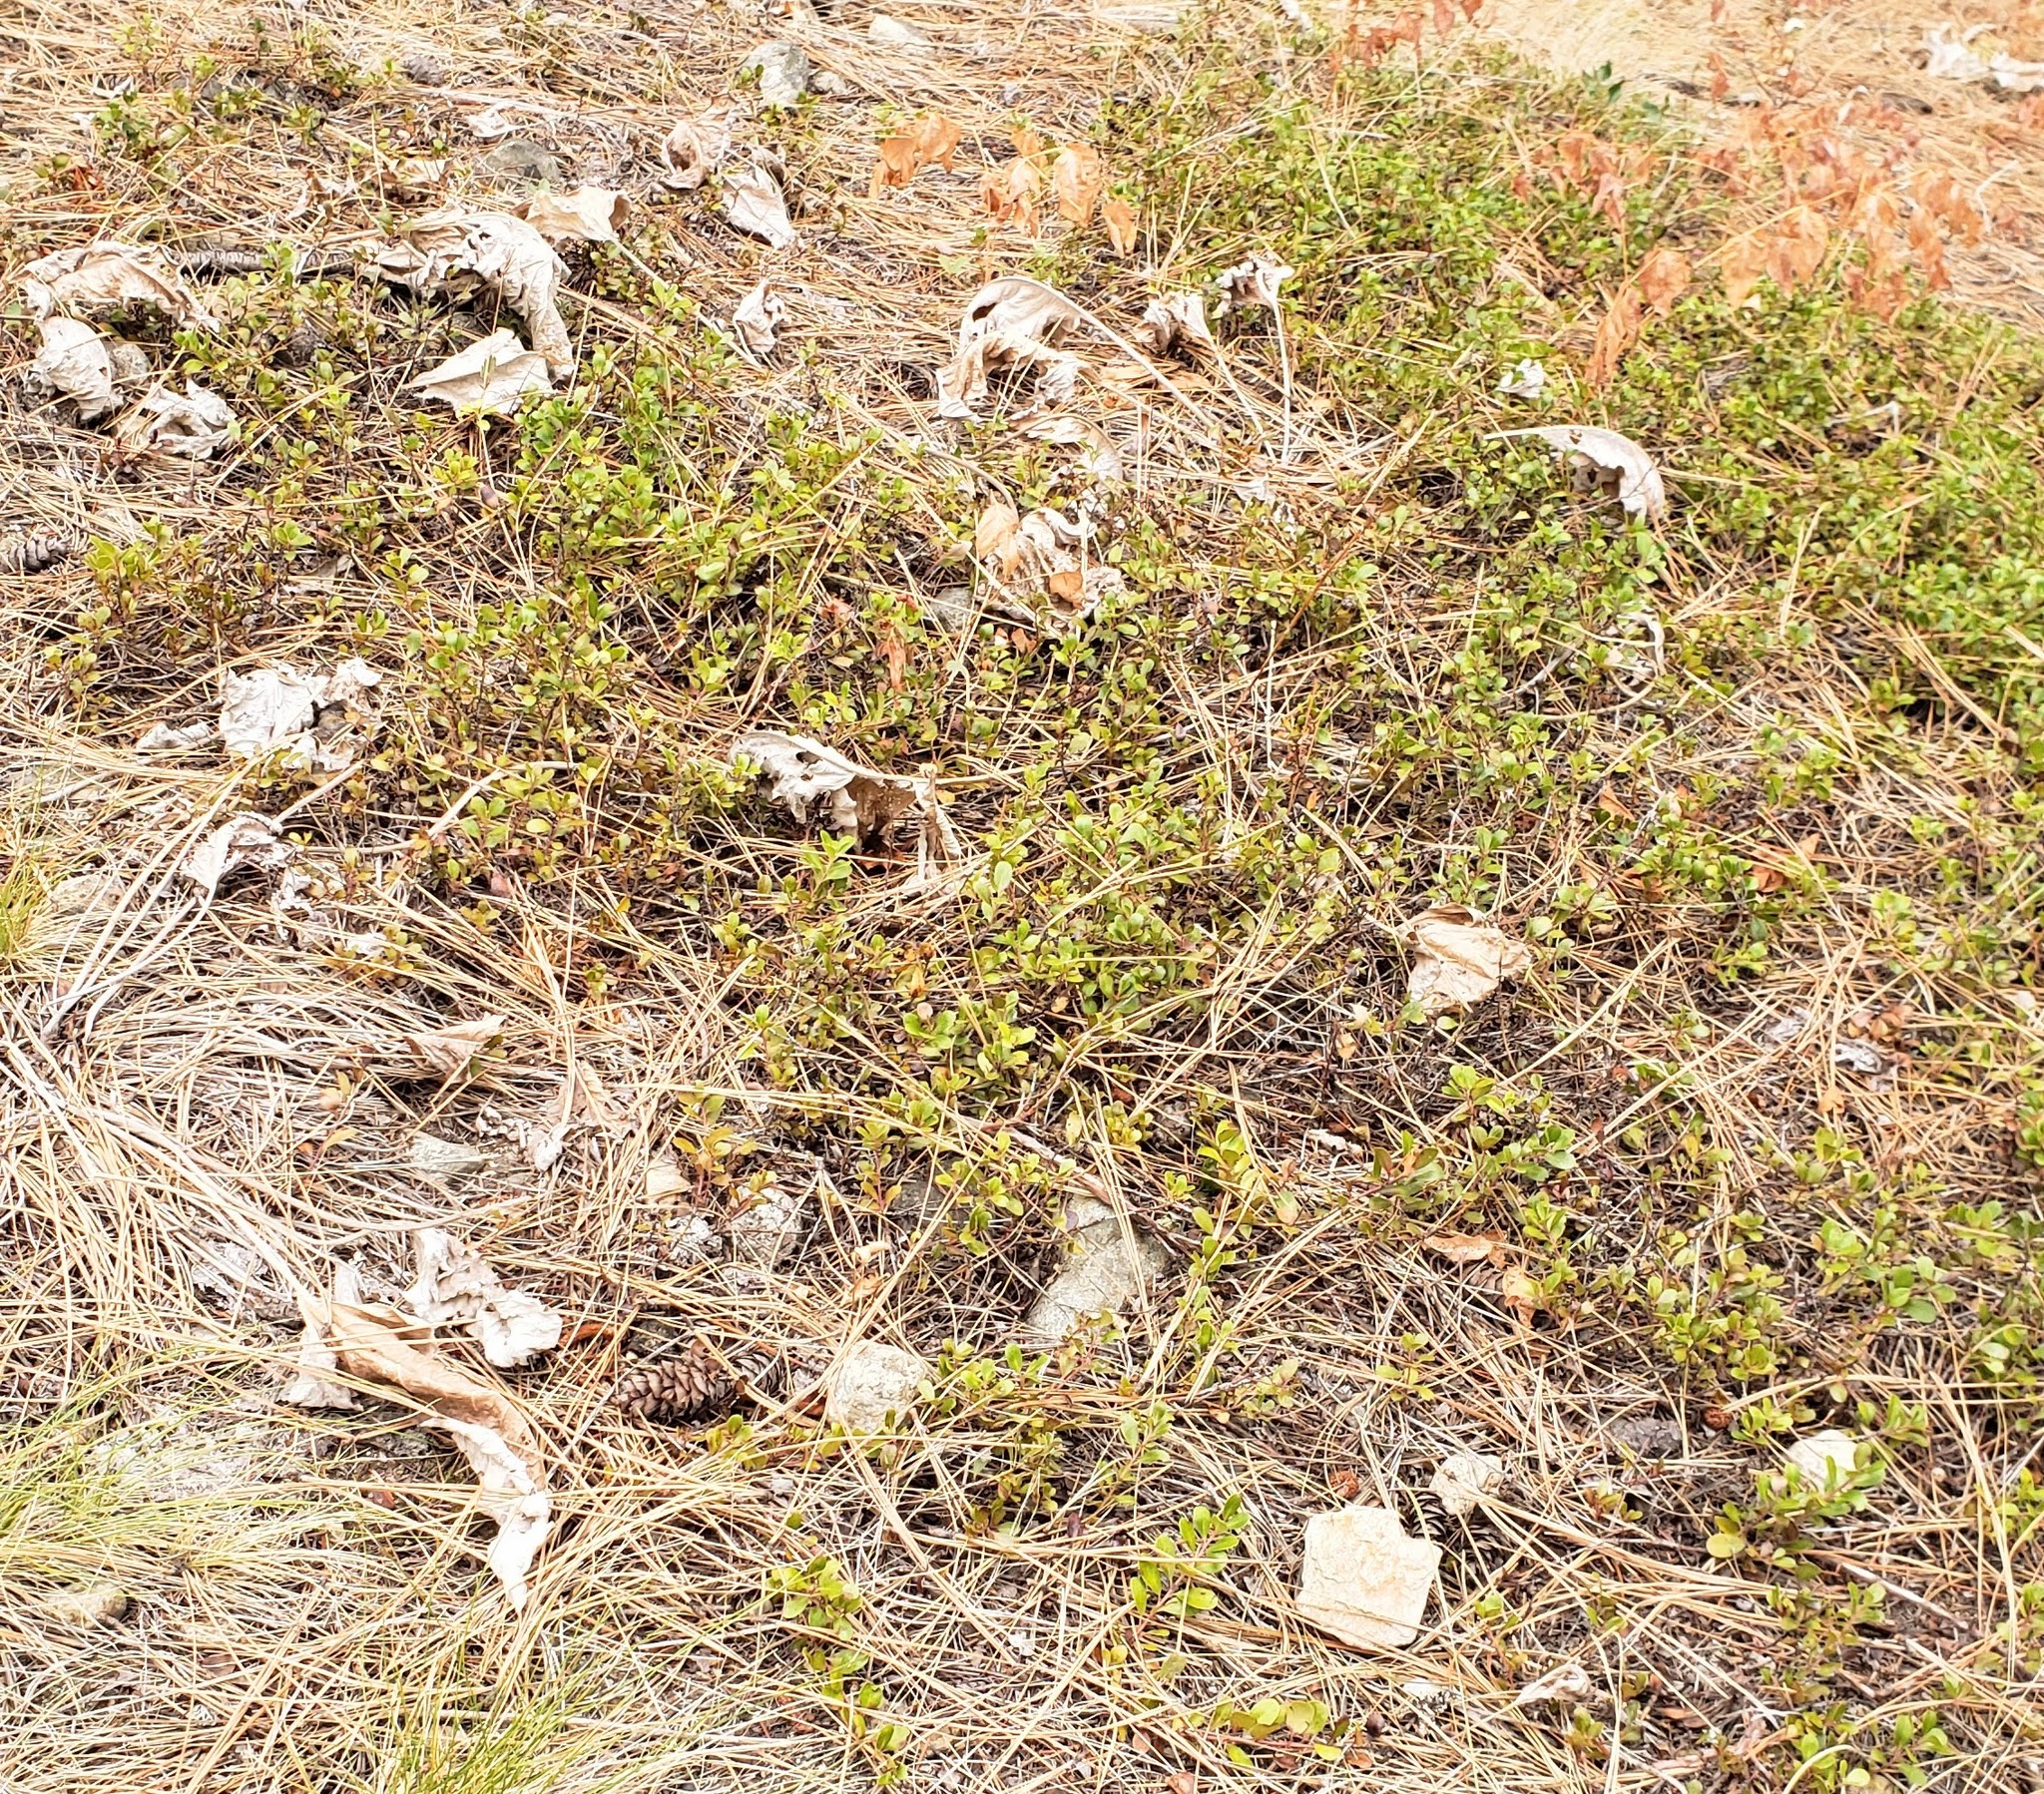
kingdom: Plantae
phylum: Tracheophyta
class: Magnoliopsida
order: Ericales
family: Ericaceae
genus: Arctostaphylos
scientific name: Arctostaphylos uva-ursi
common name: Bearberry
